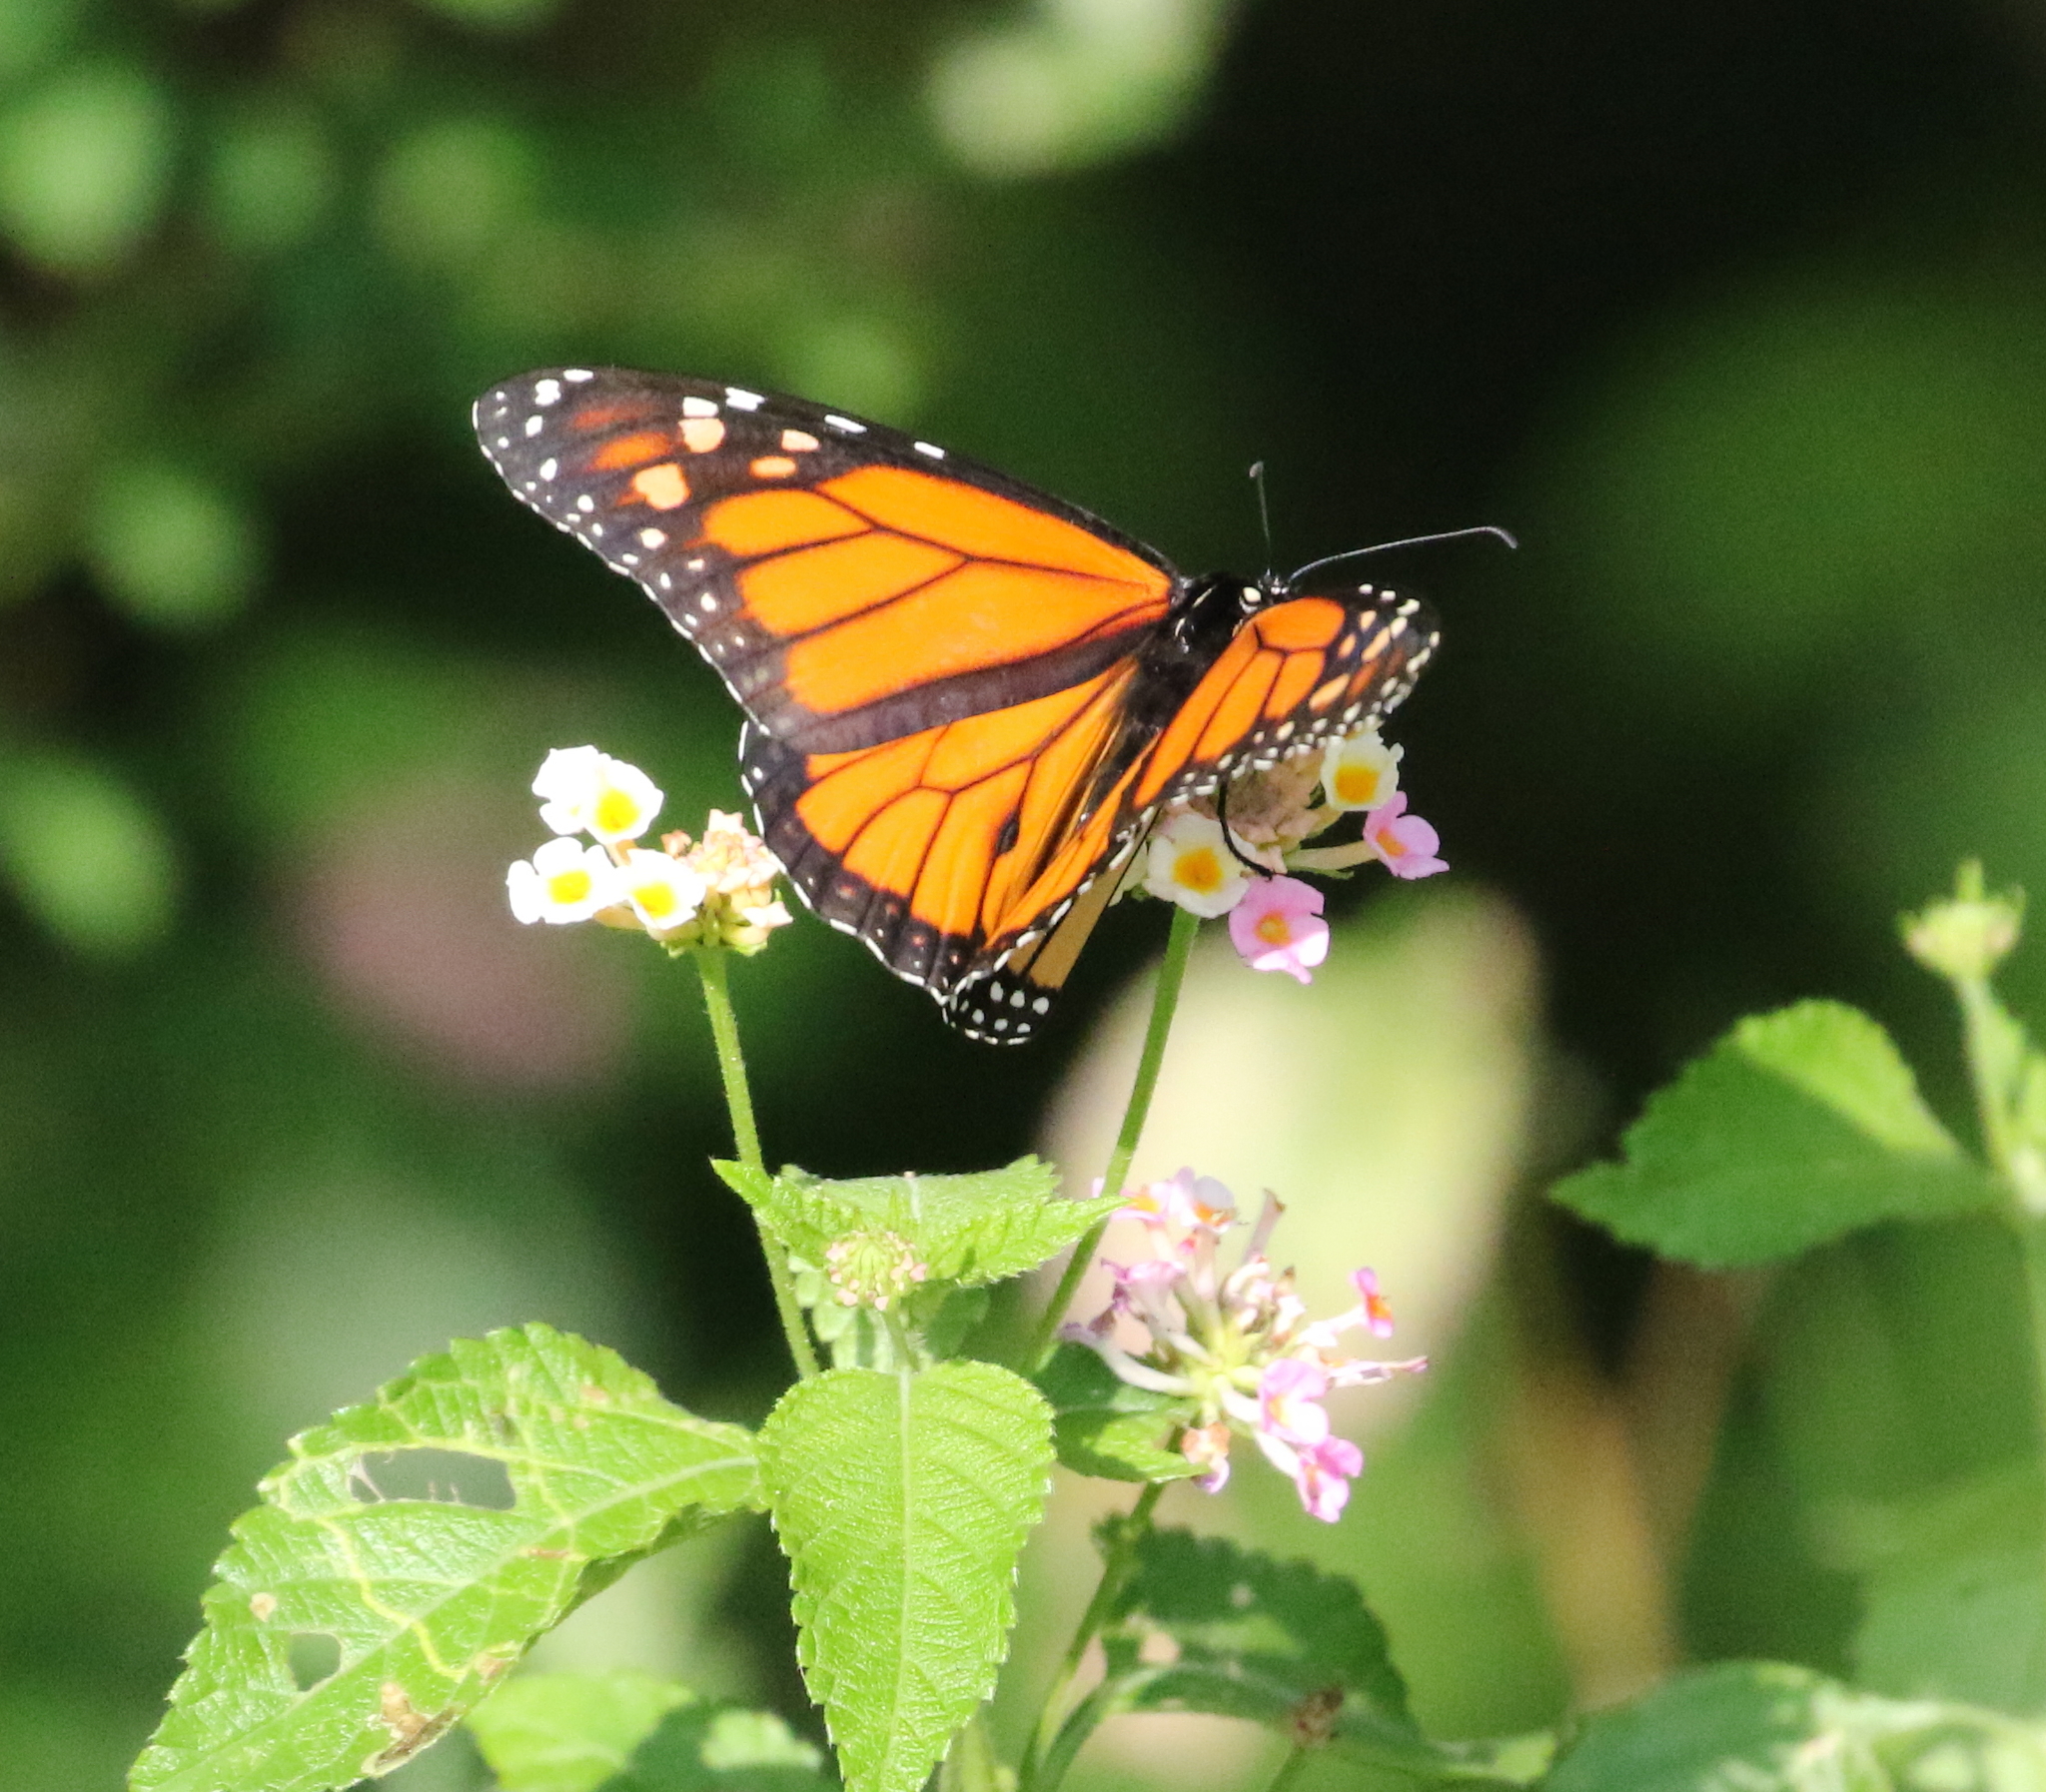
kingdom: Animalia
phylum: Arthropoda
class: Insecta
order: Lepidoptera
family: Nymphalidae
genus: Danaus
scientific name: Danaus plexippus
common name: Monarch
